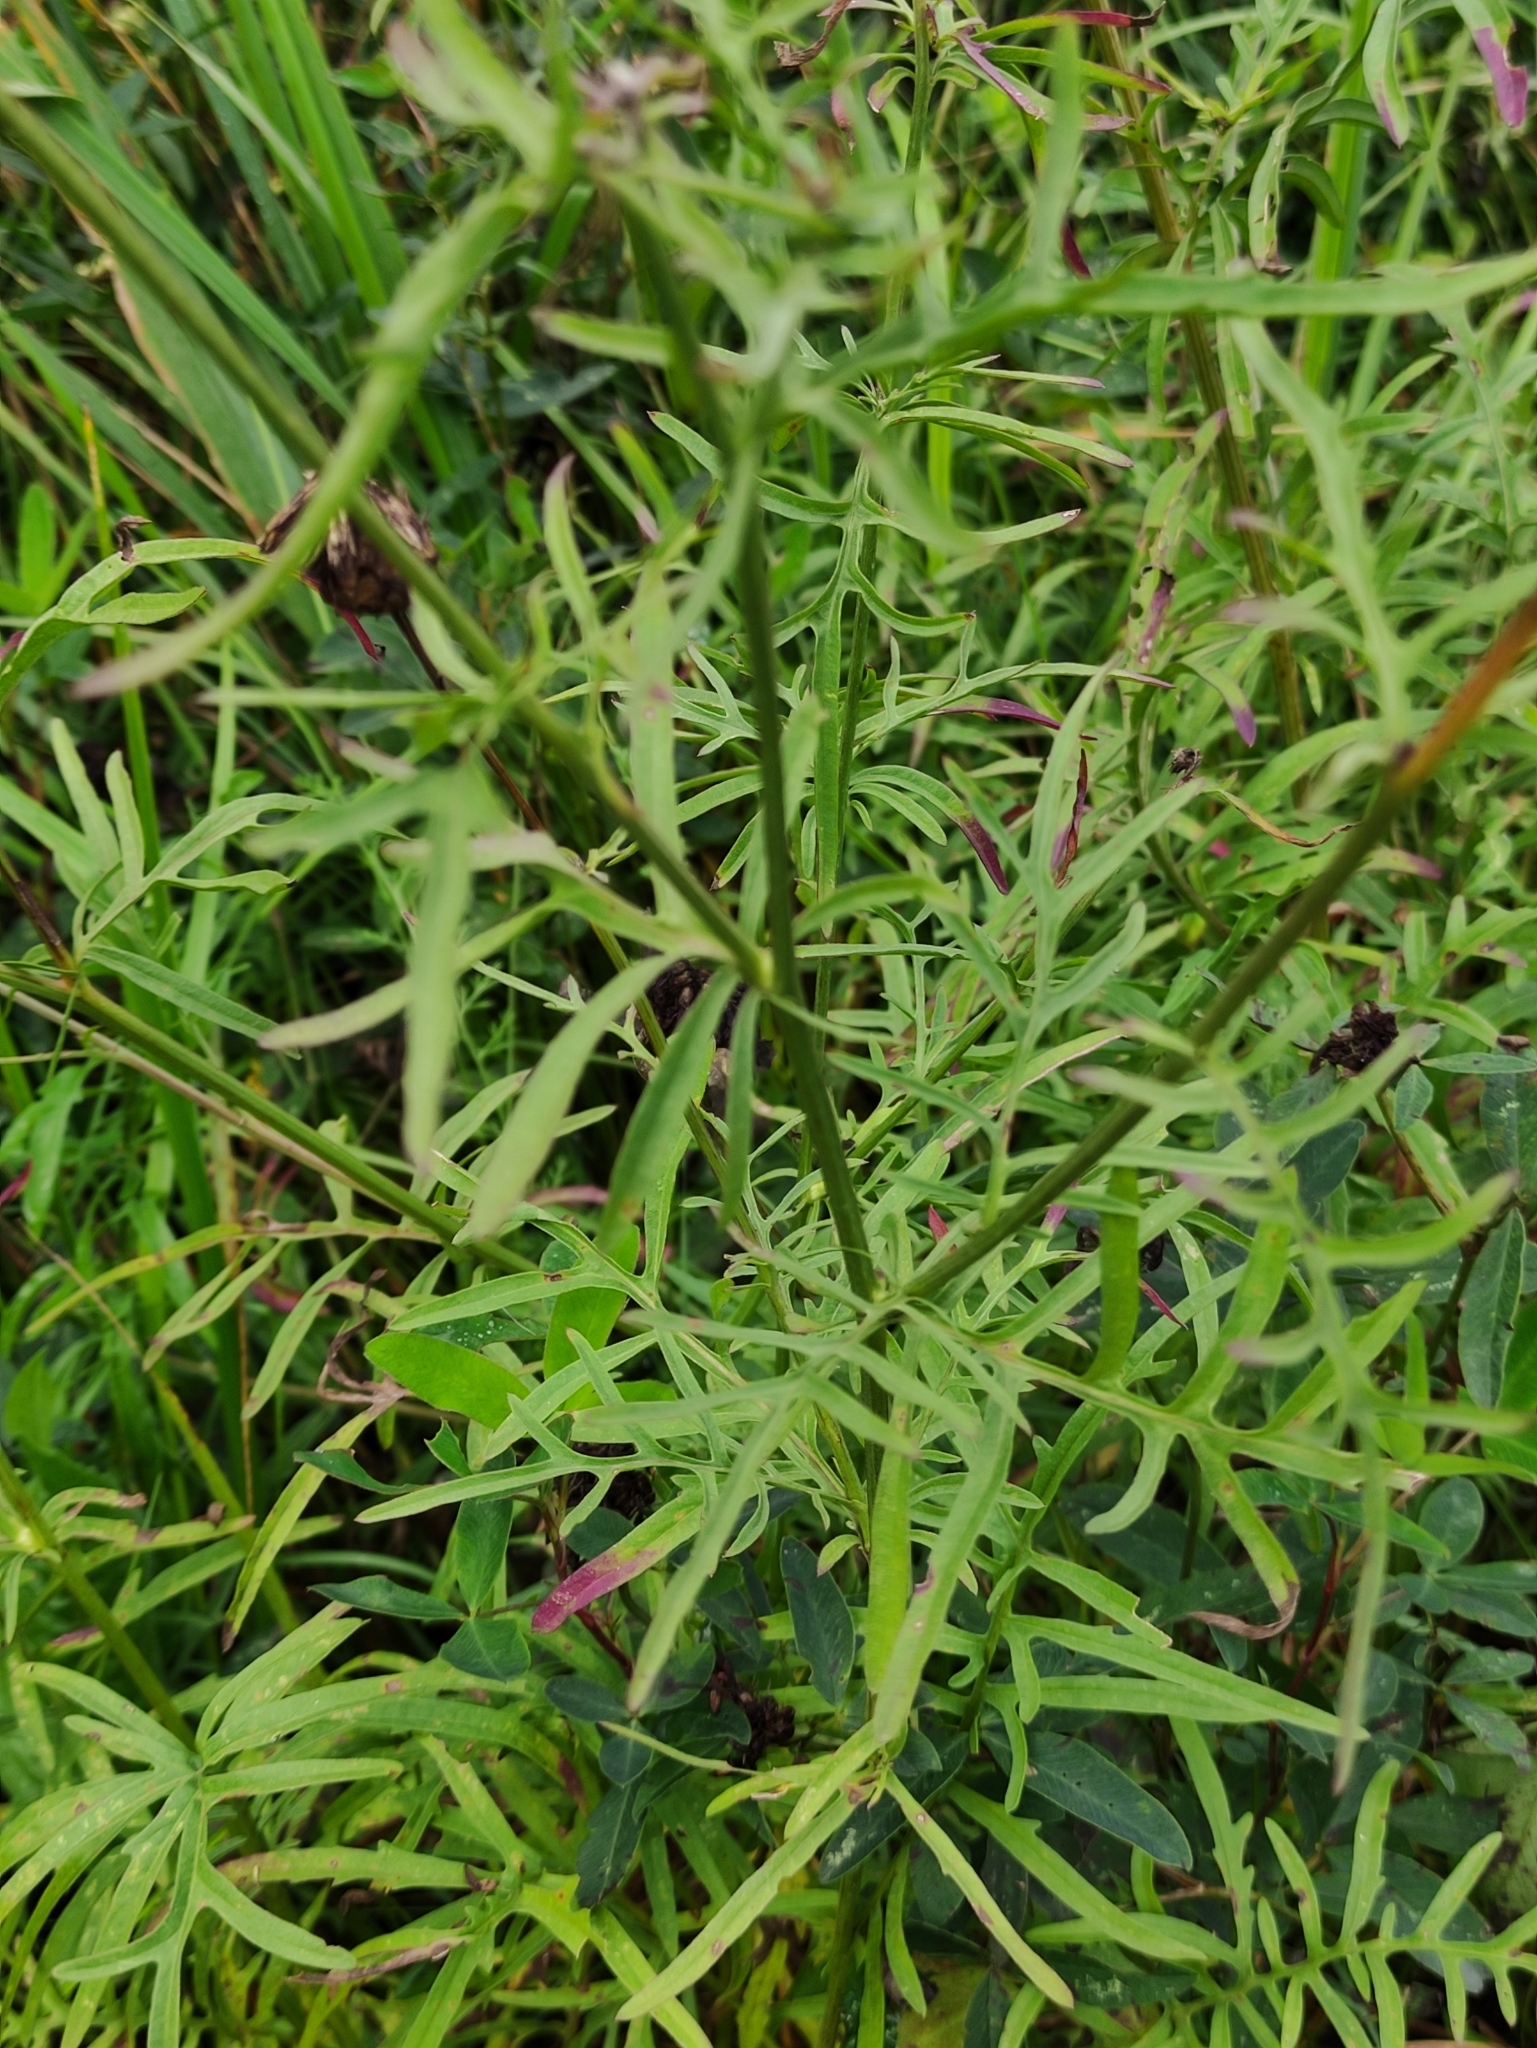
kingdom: Plantae
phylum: Tracheophyta
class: Magnoliopsida
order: Asterales
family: Asteraceae
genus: Centaurea
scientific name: Centaurea scabiosa
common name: Greater knapweed
